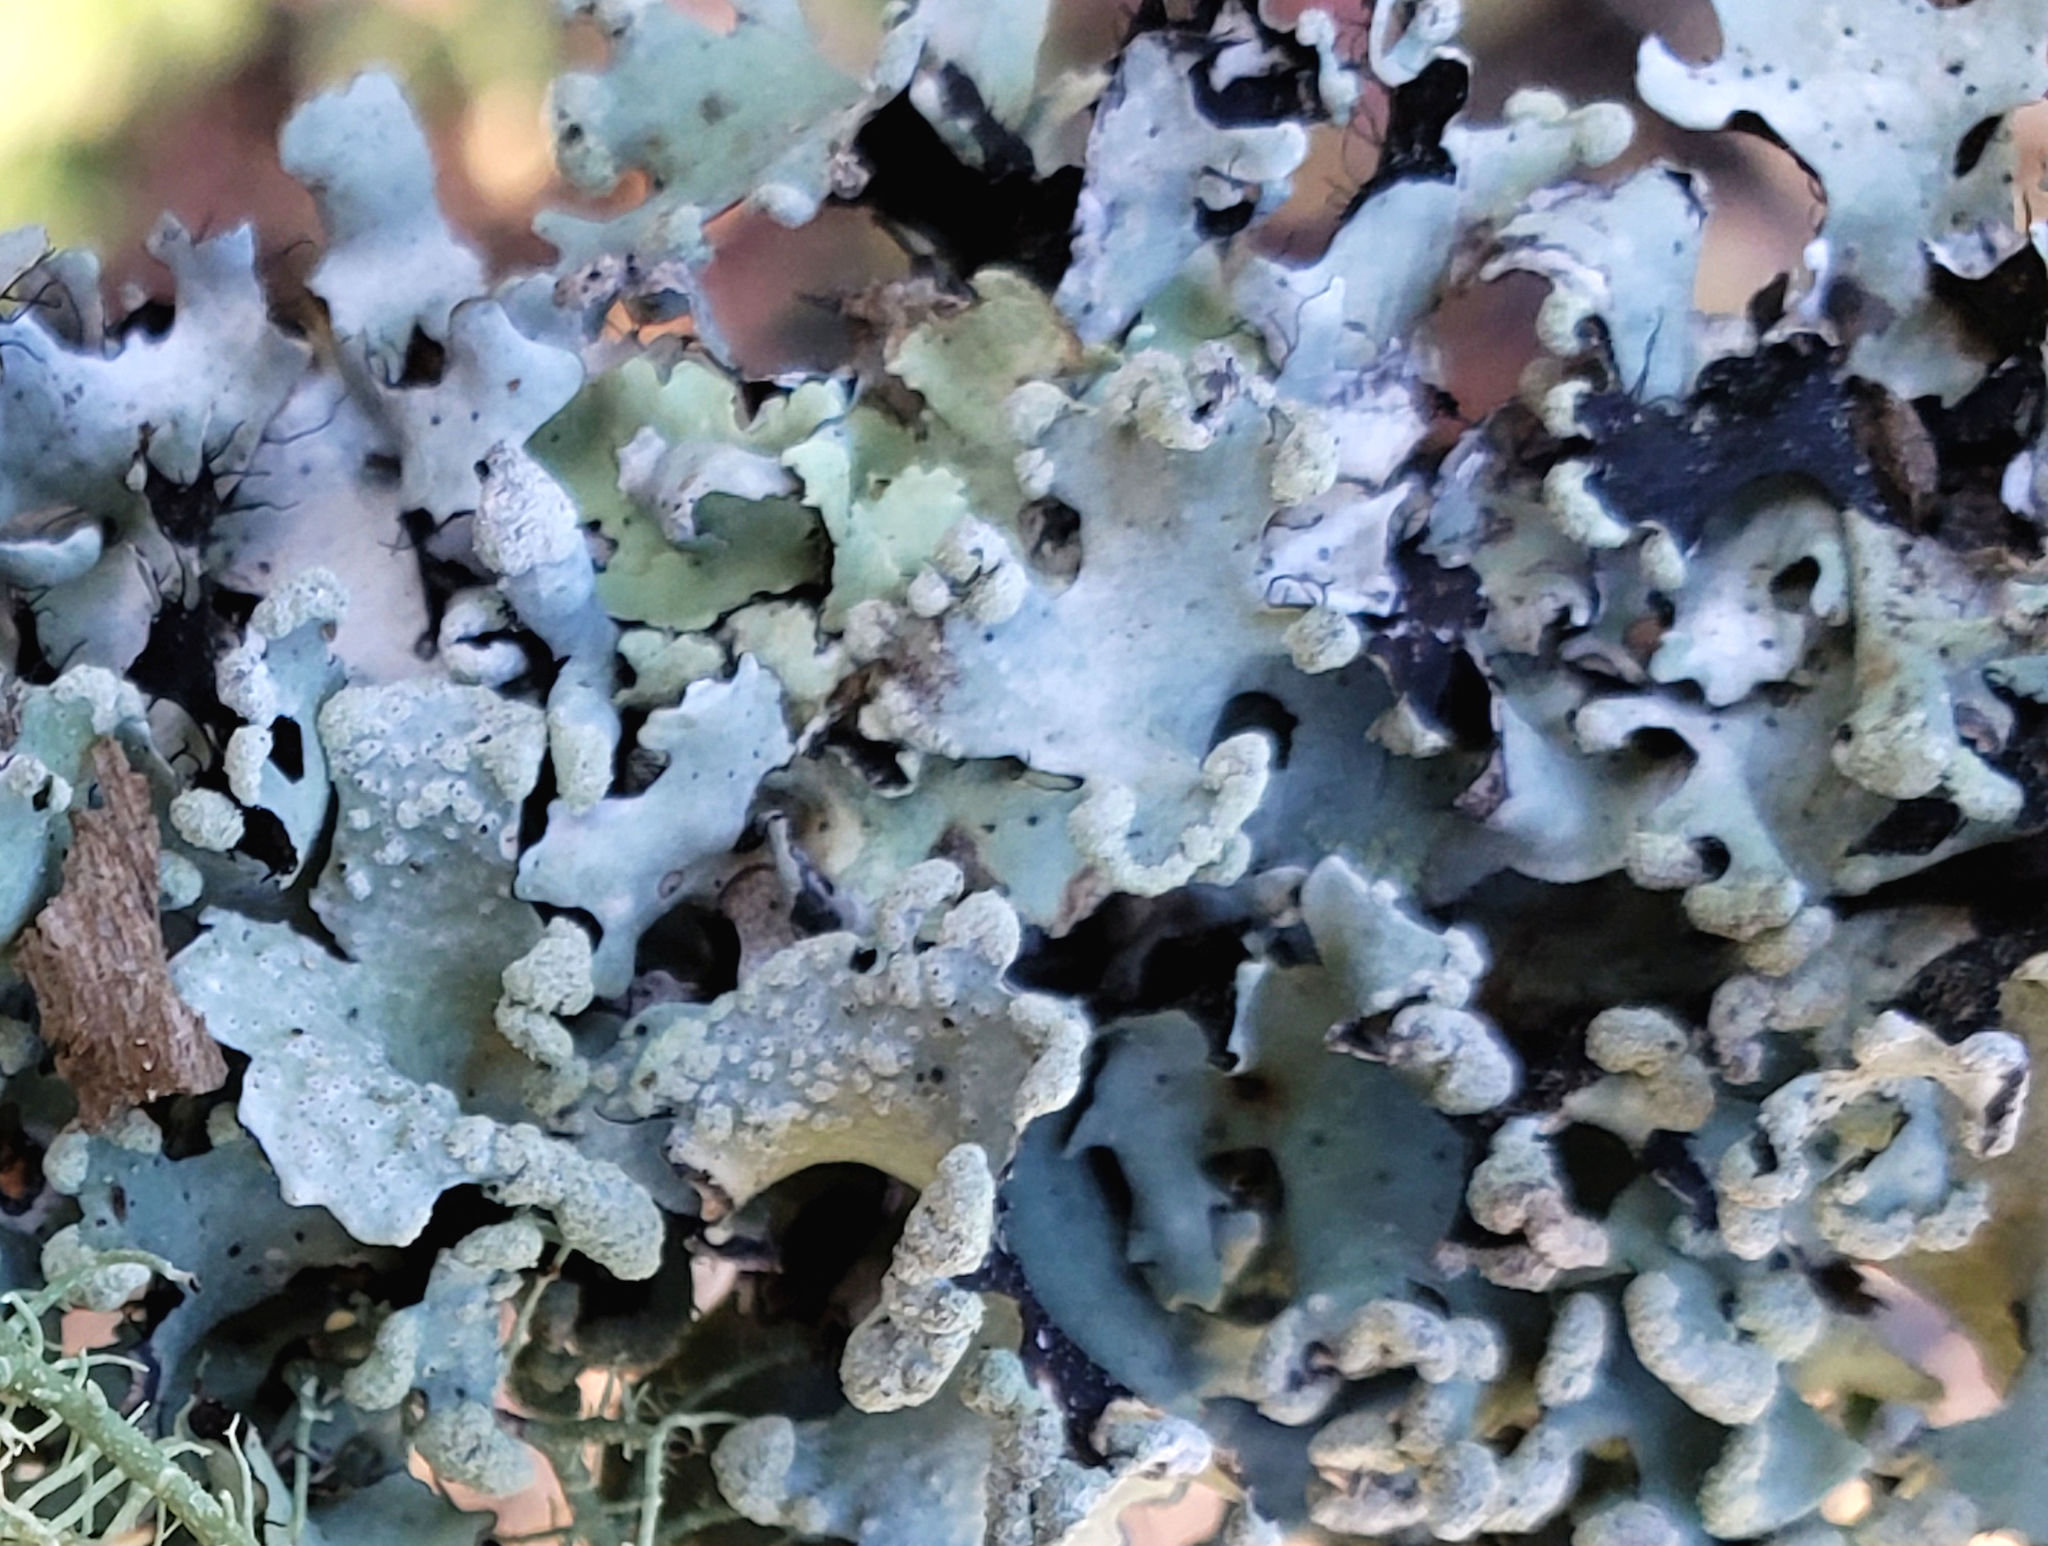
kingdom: Fungi
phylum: Ascomycota
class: Lecanoromycetes
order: Lecanorales
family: Parmeliaceae
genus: Flavopunctelia
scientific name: Flavopunctelia flaventior
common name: Speckled greenshield
